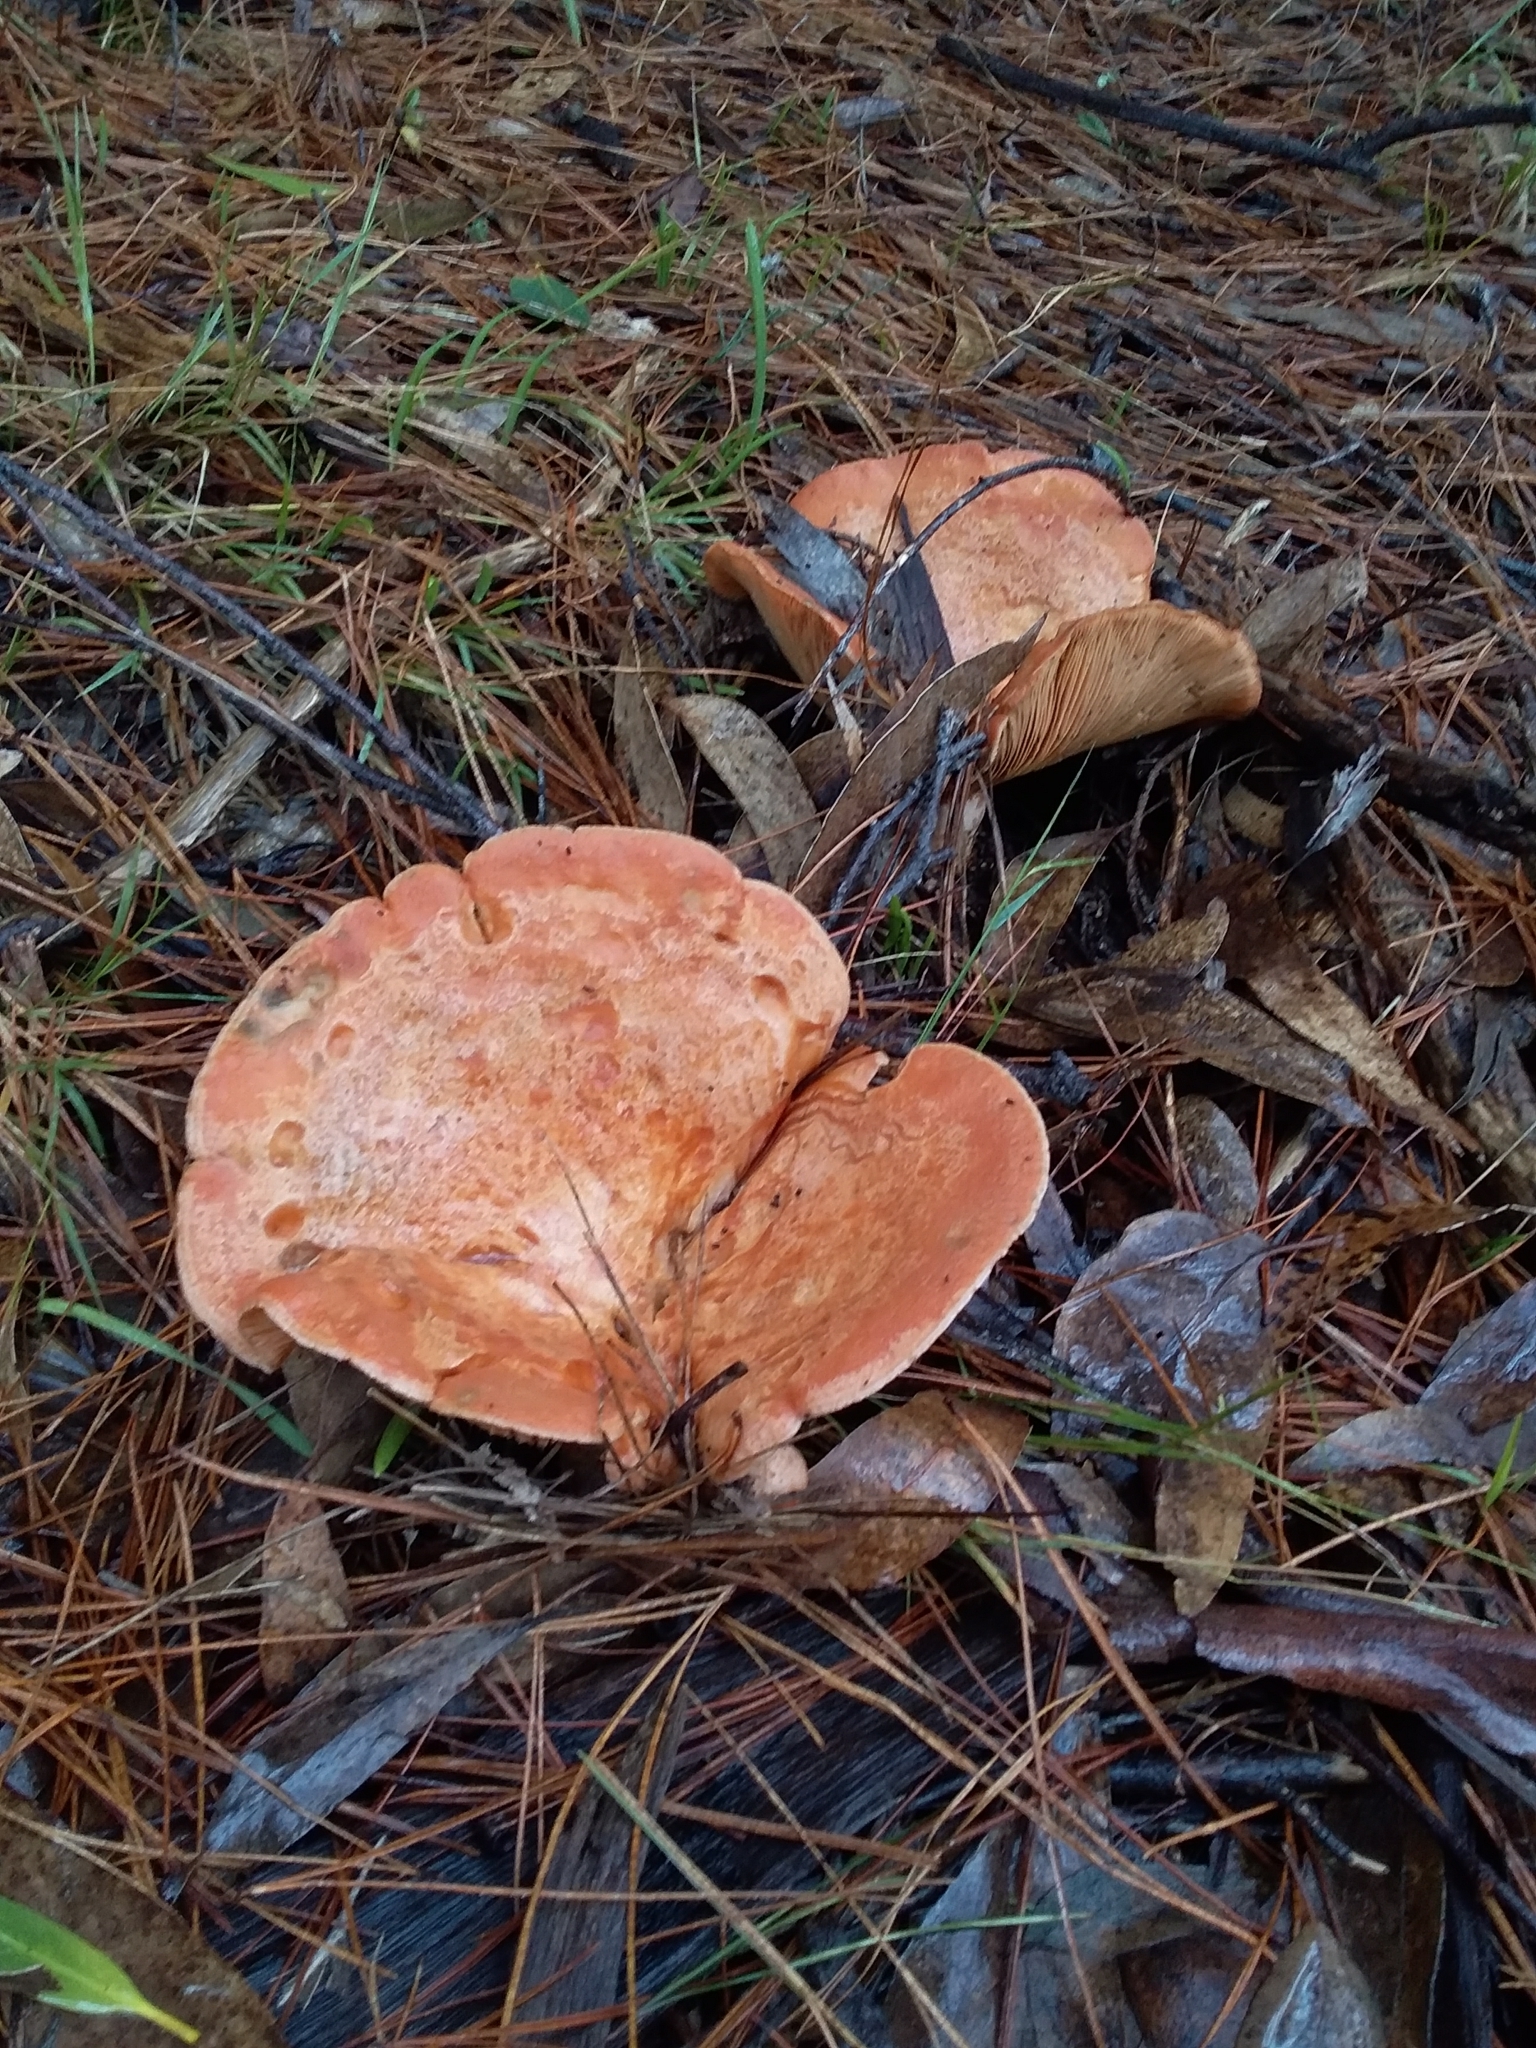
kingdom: Fungi
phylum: Basidiomycota
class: Agaricomycetes
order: Russulales
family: Russulaceae
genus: Lactarius
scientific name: Lactarius deliciosus
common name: Saffron milk-cap
